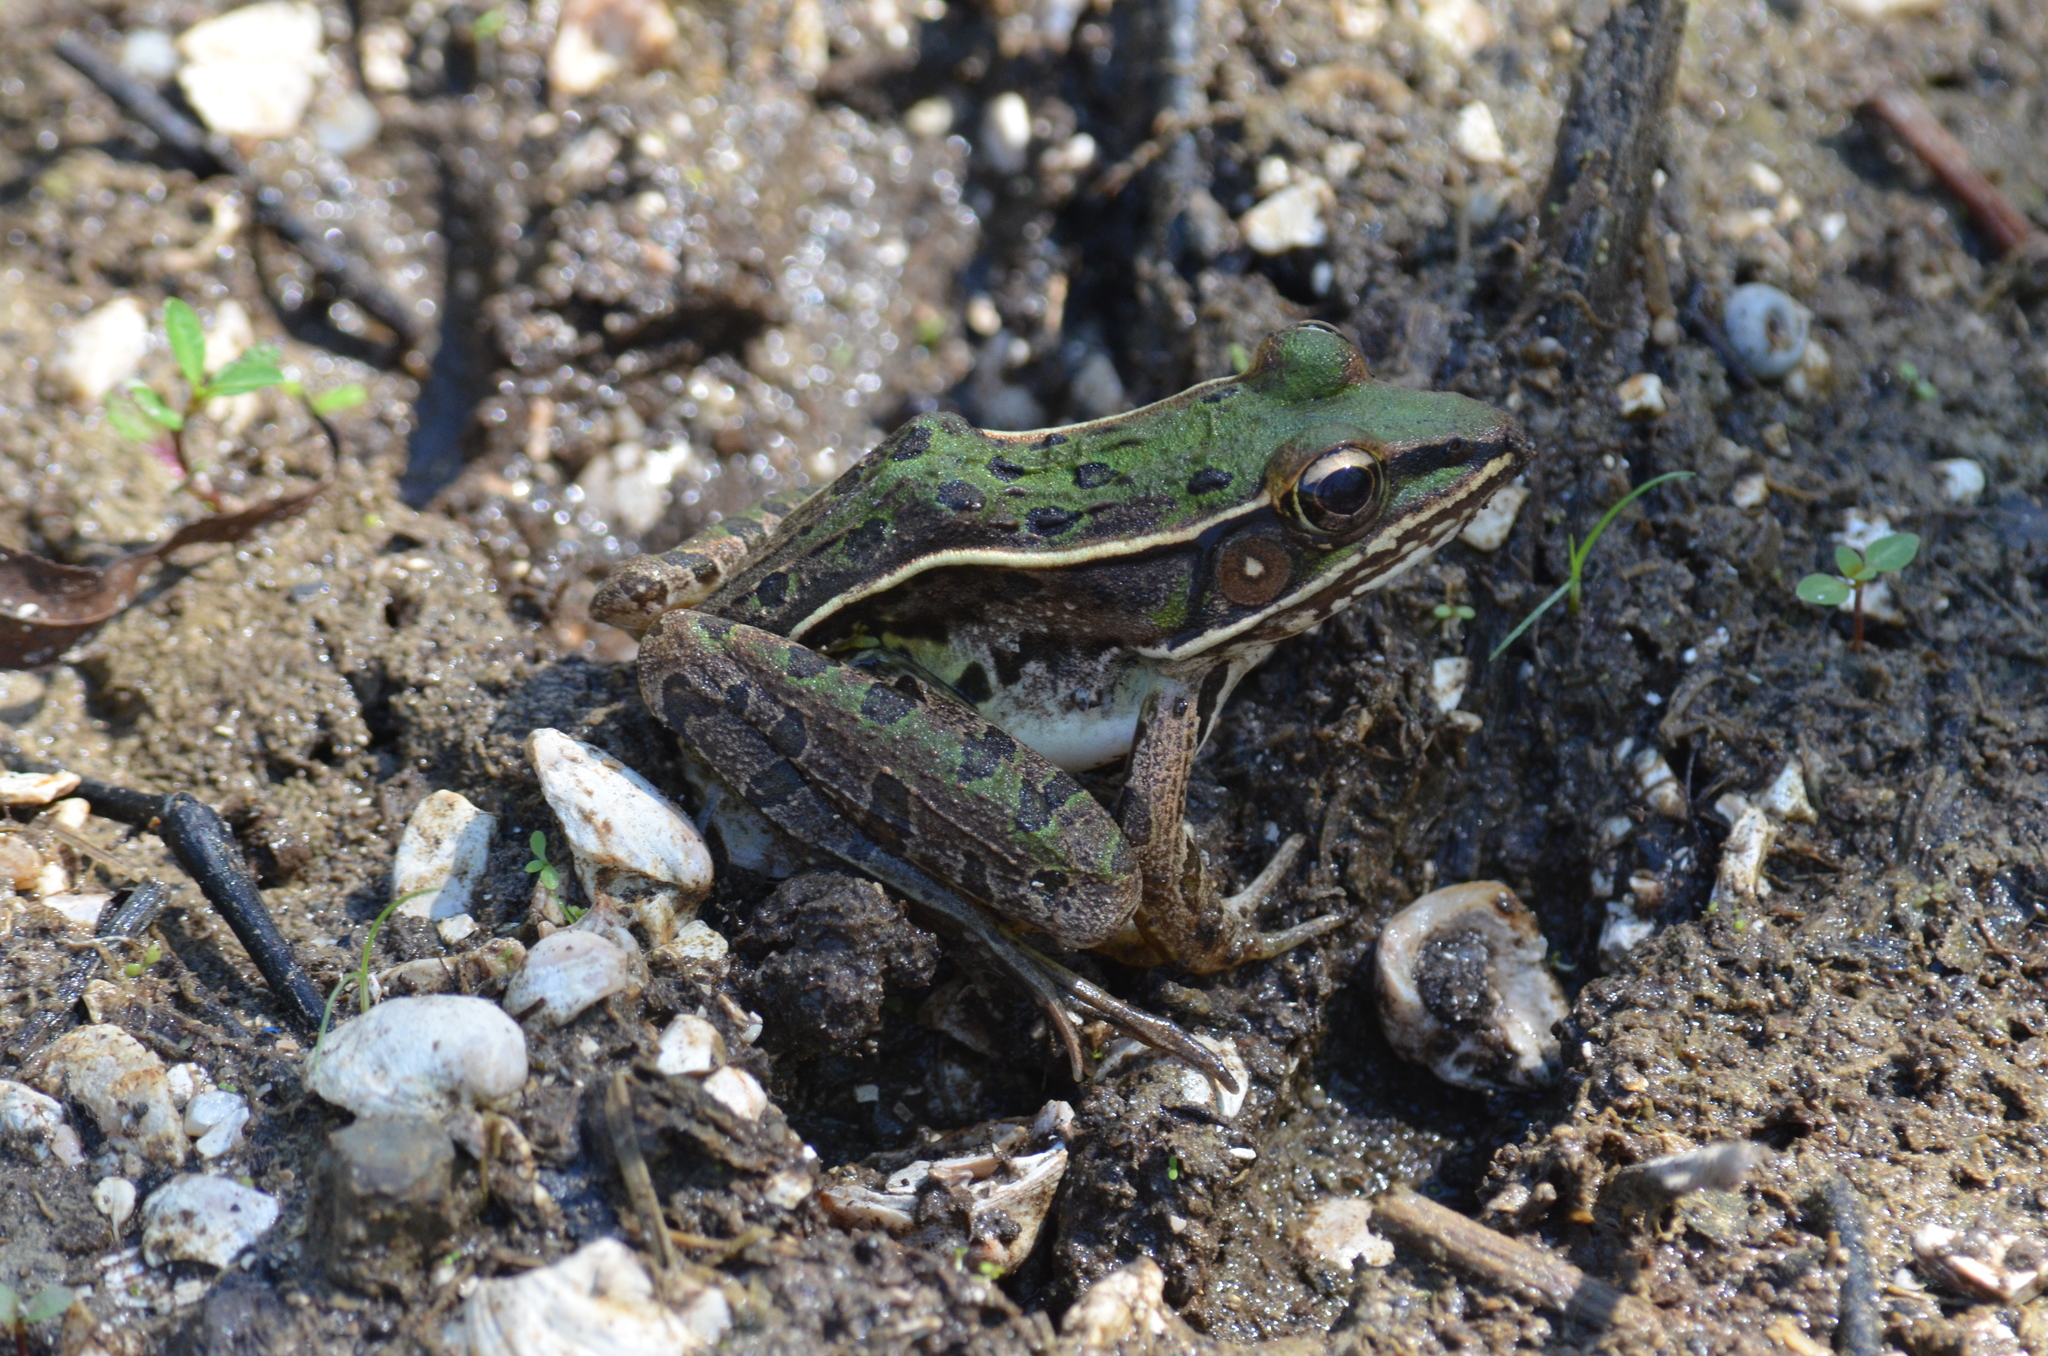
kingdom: Animalia
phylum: Chordata
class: Amphibia
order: Anura
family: Ranidae
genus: Lithobates
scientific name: Lithobates sphenocephalus
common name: Southern leopard frog
